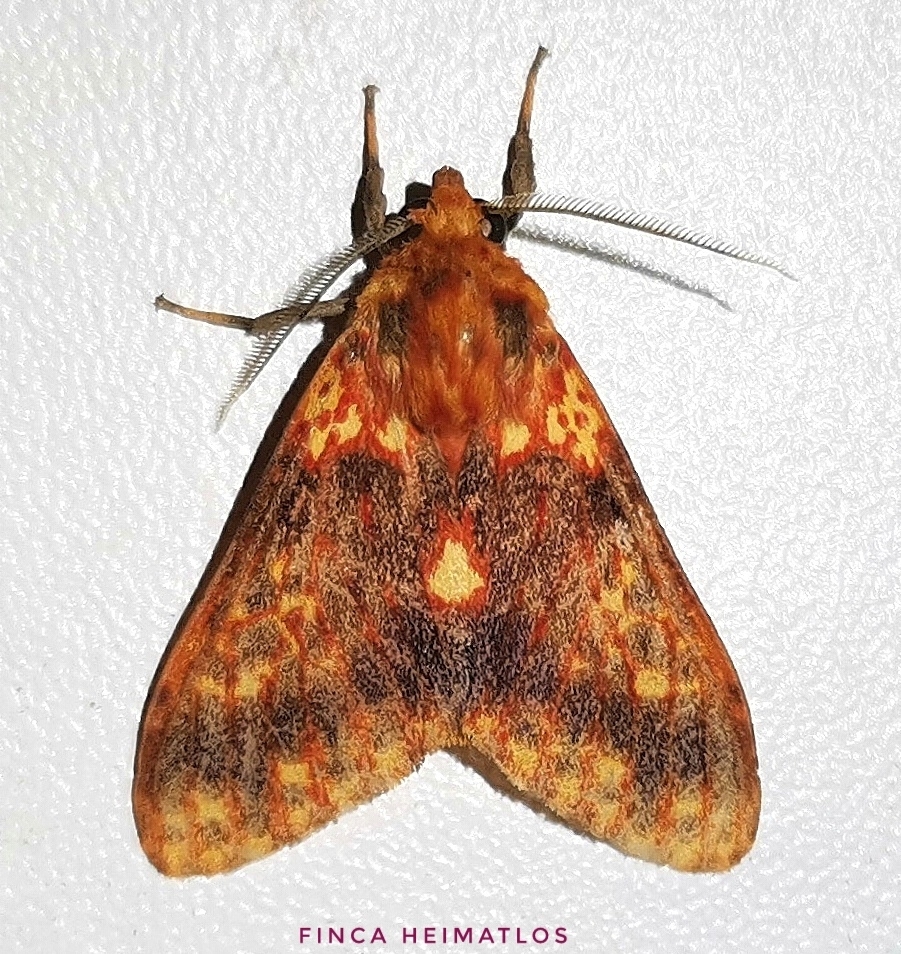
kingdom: Animalia
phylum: Arthropoda
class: Insecta
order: Lepidoptera
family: Erebidae
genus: Symphlebia
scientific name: Symphlebia perflua
